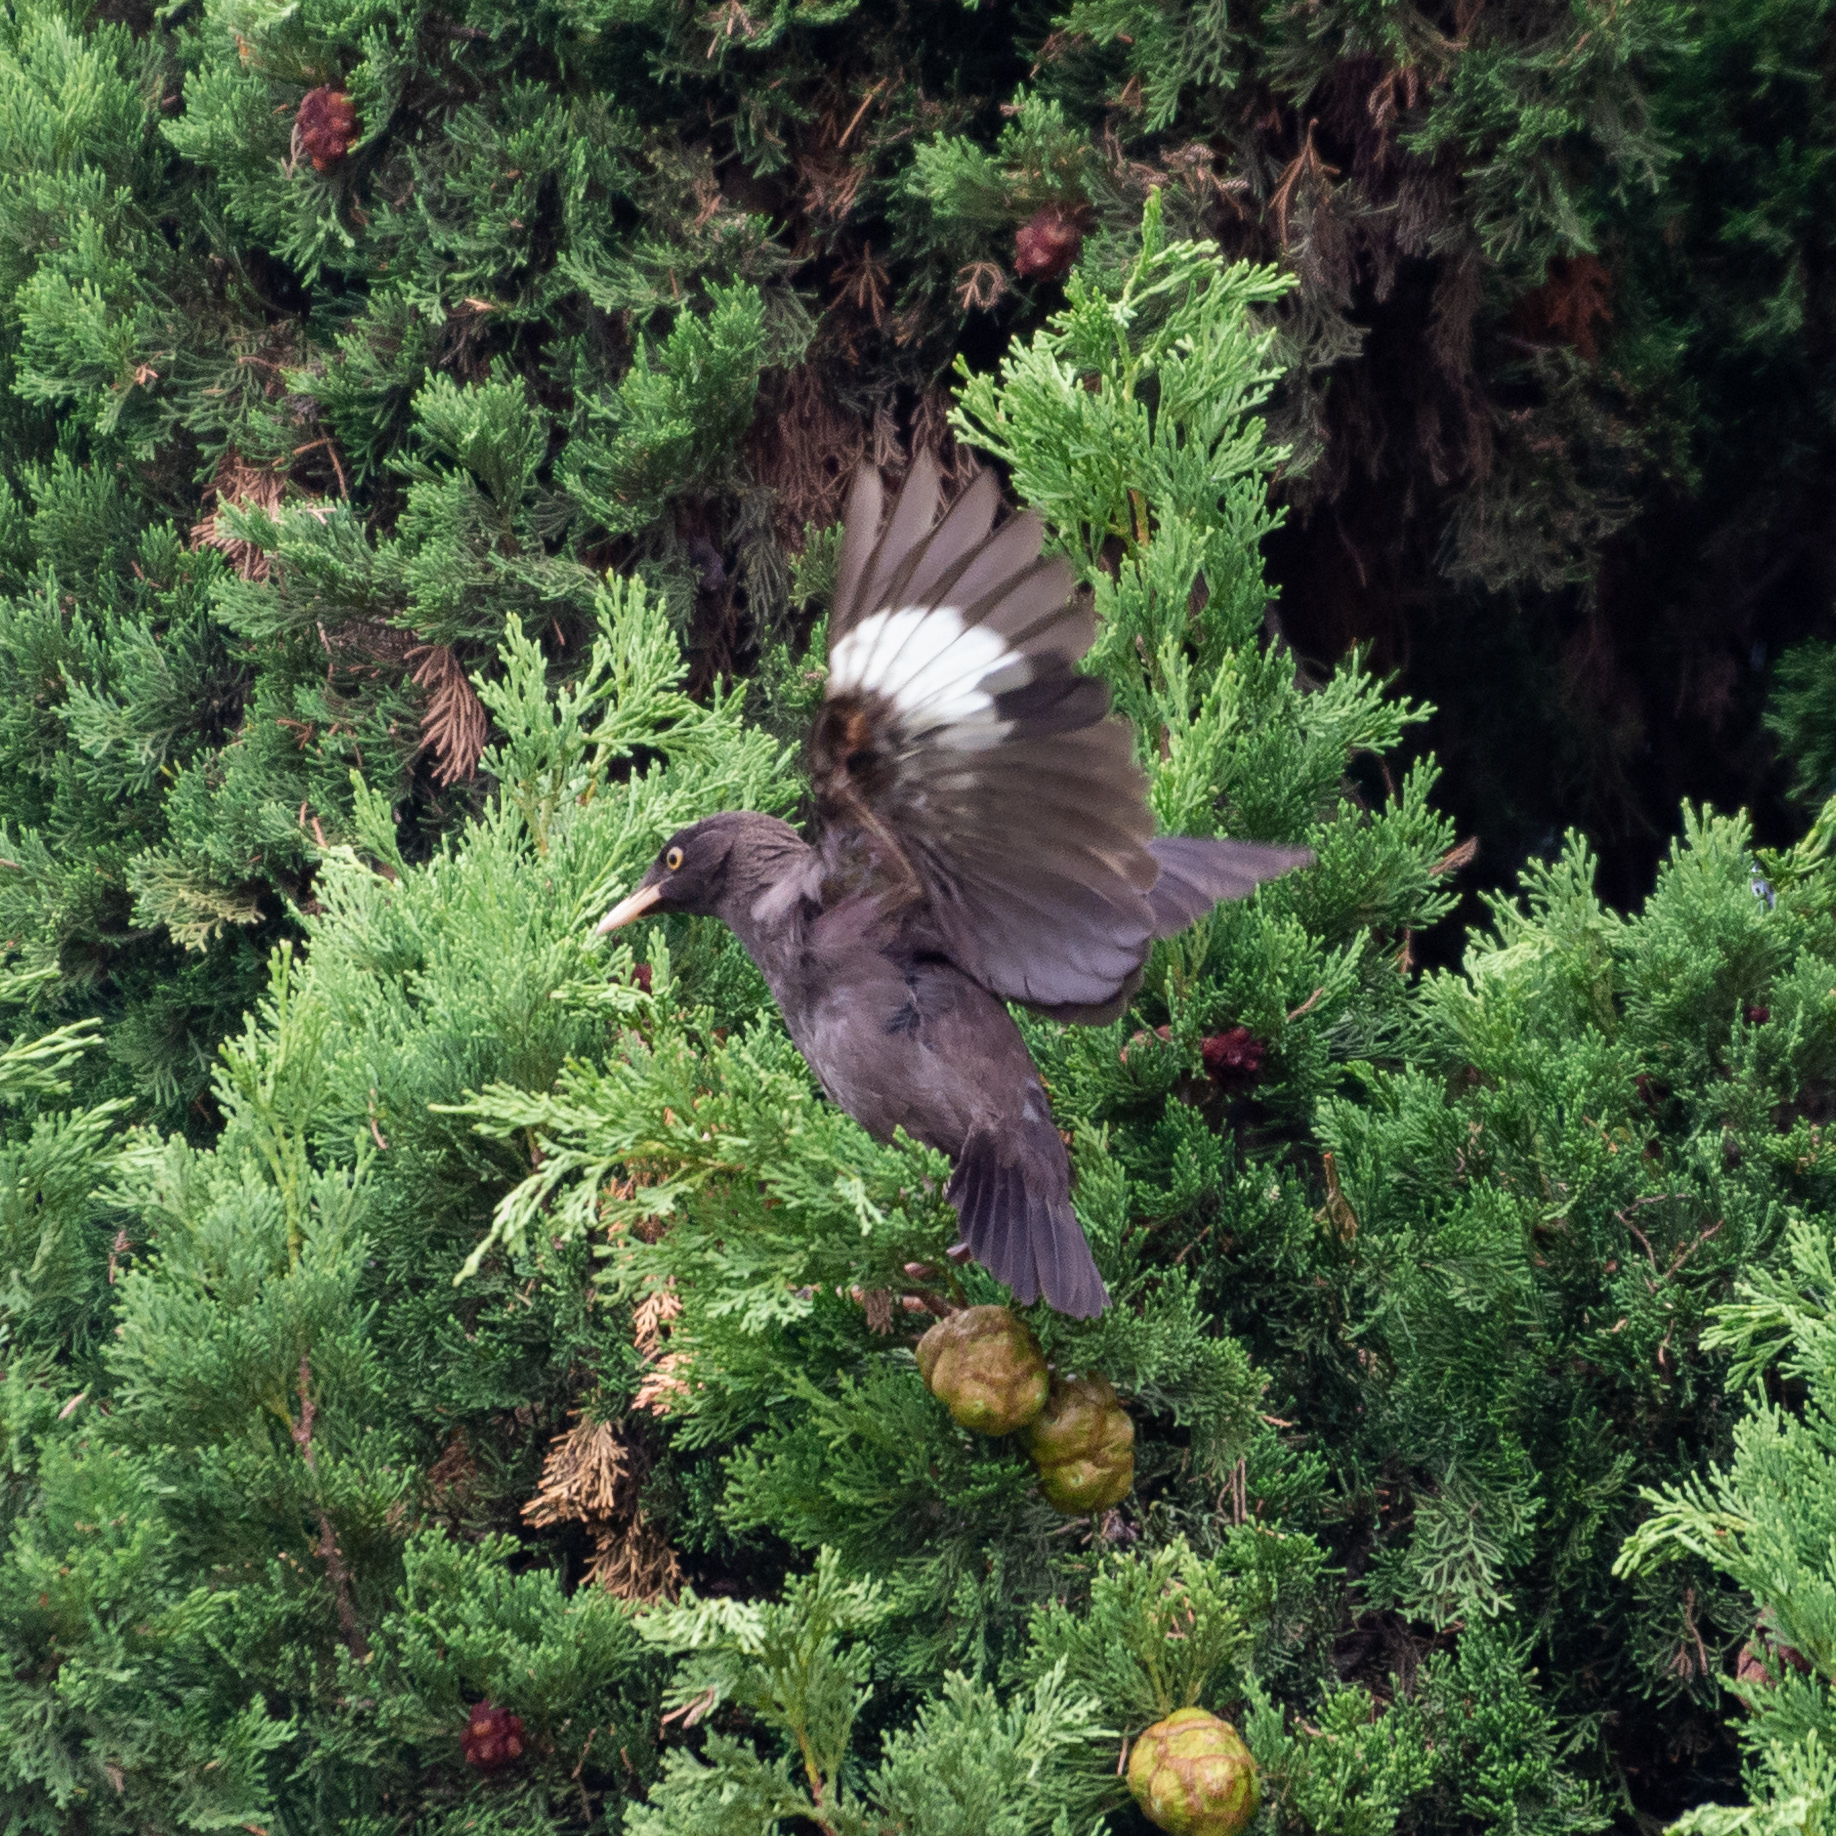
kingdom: Animalia
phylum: Chordata
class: Aves
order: Passeriformes
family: Sturnidae
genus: Acridotheres
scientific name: Acridotheres cristatellus
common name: Crested myna
